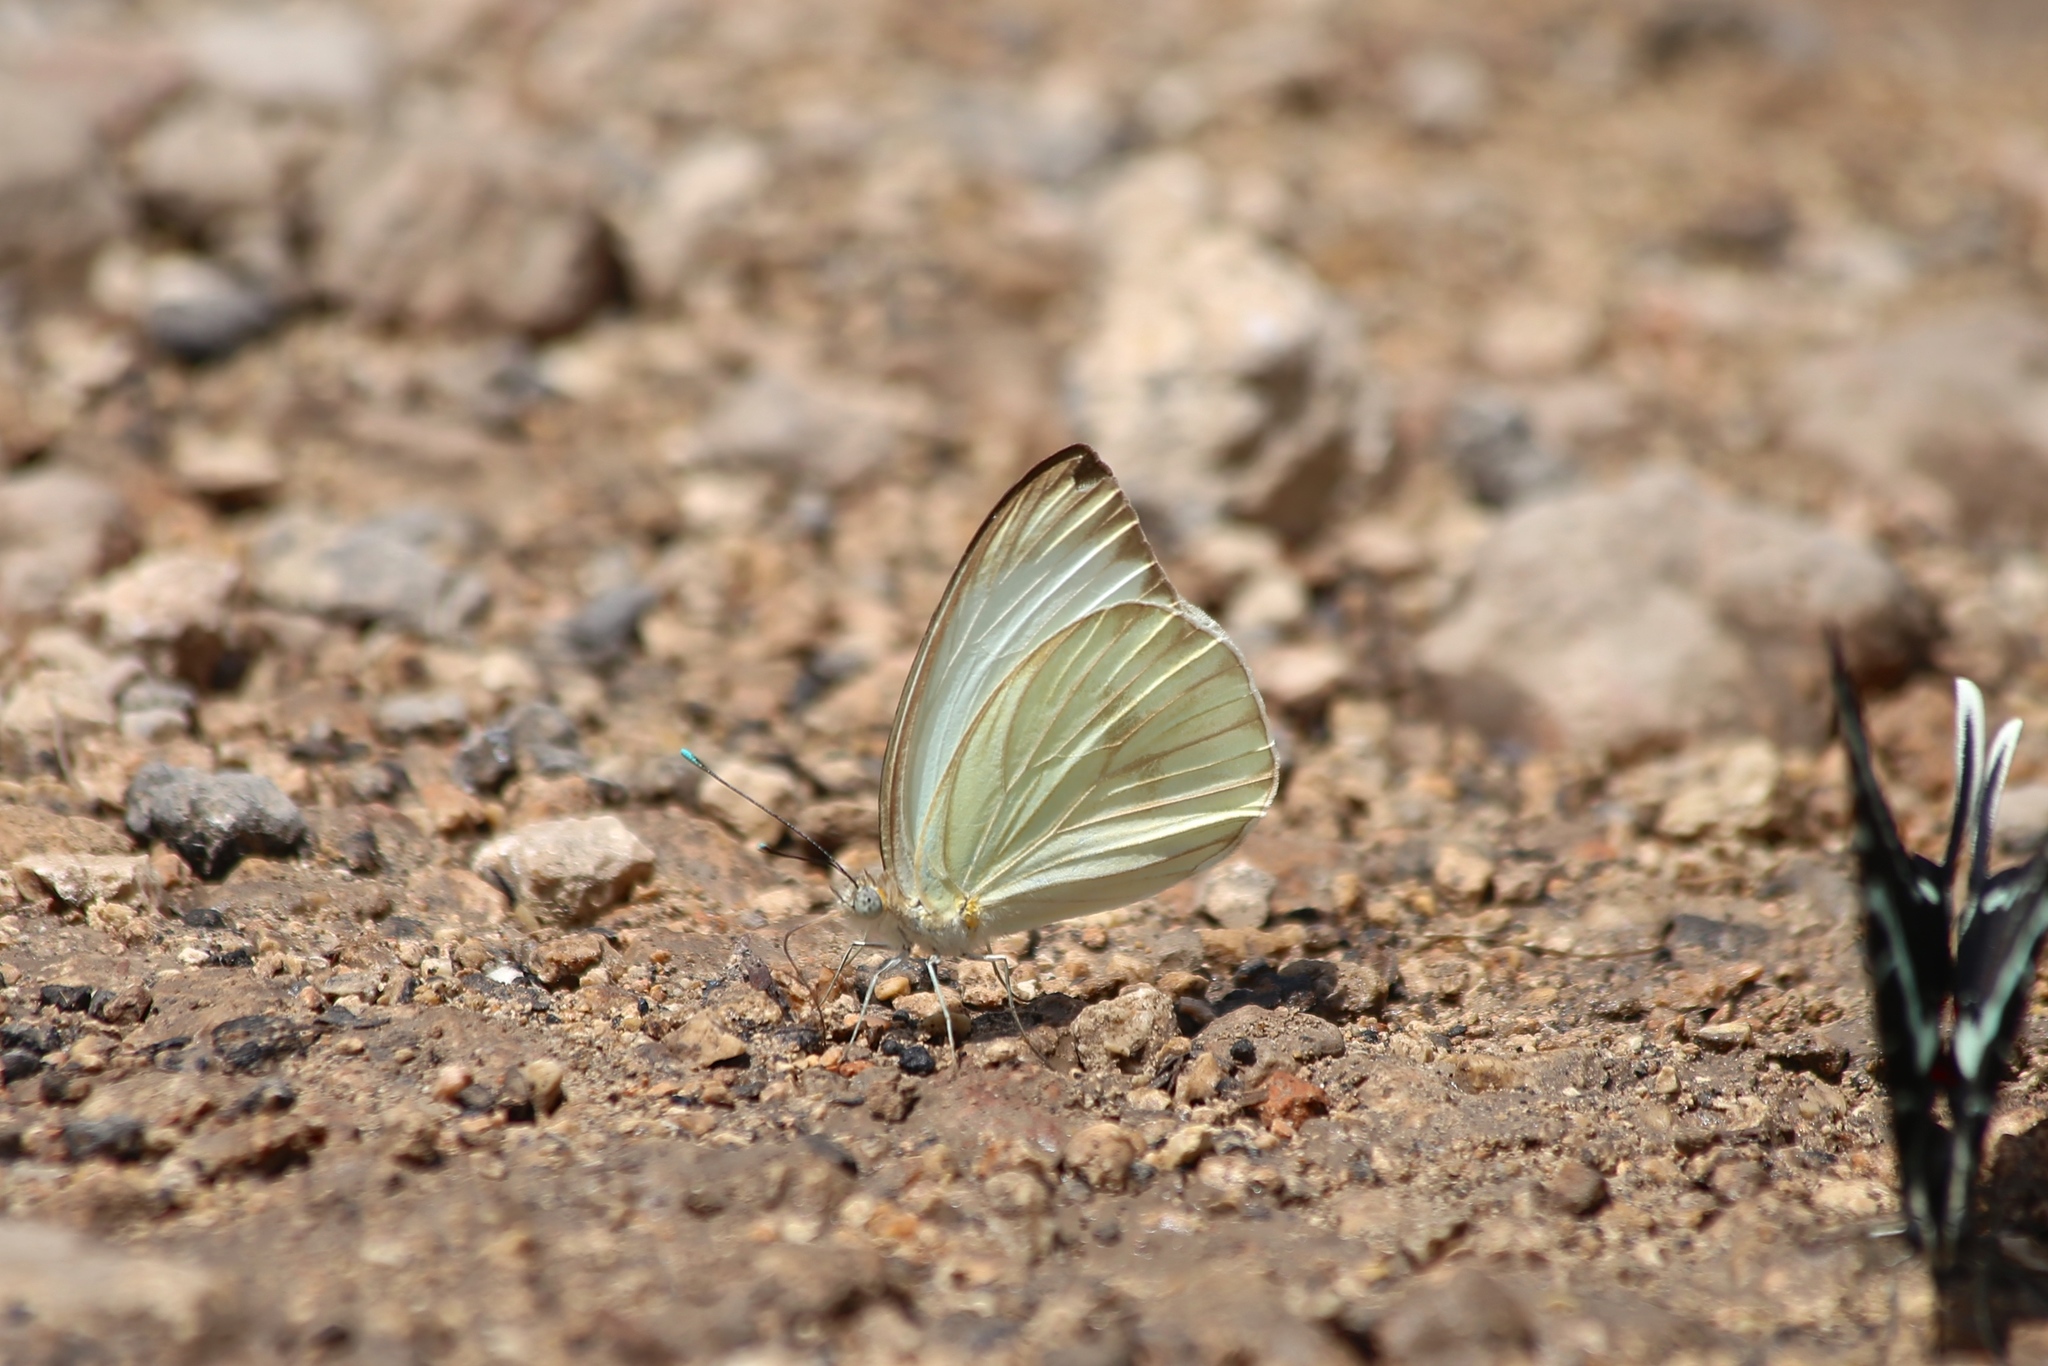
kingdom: Animalia
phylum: Arthropoda
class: Insecta
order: Lepidoptera
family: Pieridae
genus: Ascia
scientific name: Ascia monuste
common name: Great southern white
